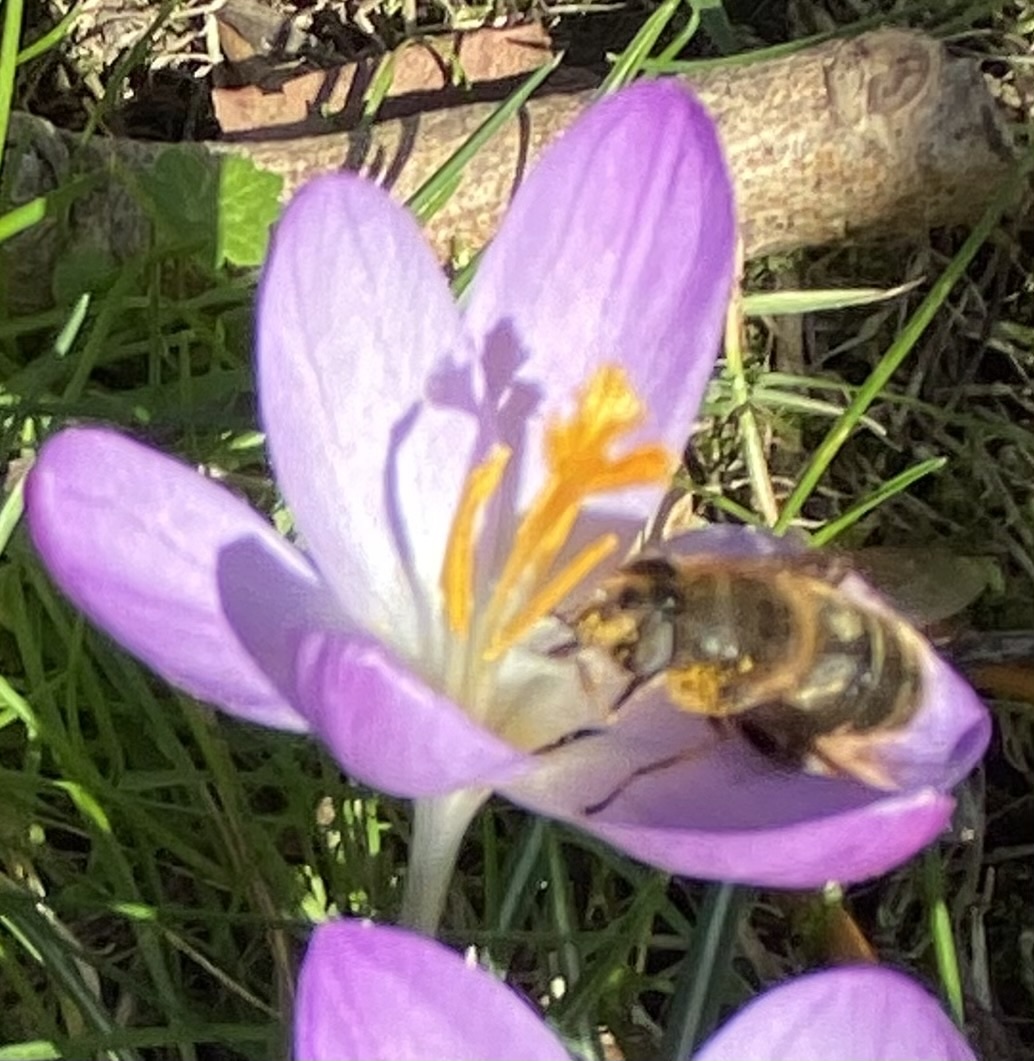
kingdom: Animalia
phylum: Arthropoda
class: Insecta
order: Diptera
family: Syrphidae
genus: Eristalis
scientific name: Eristalis tenax
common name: Drone fly
